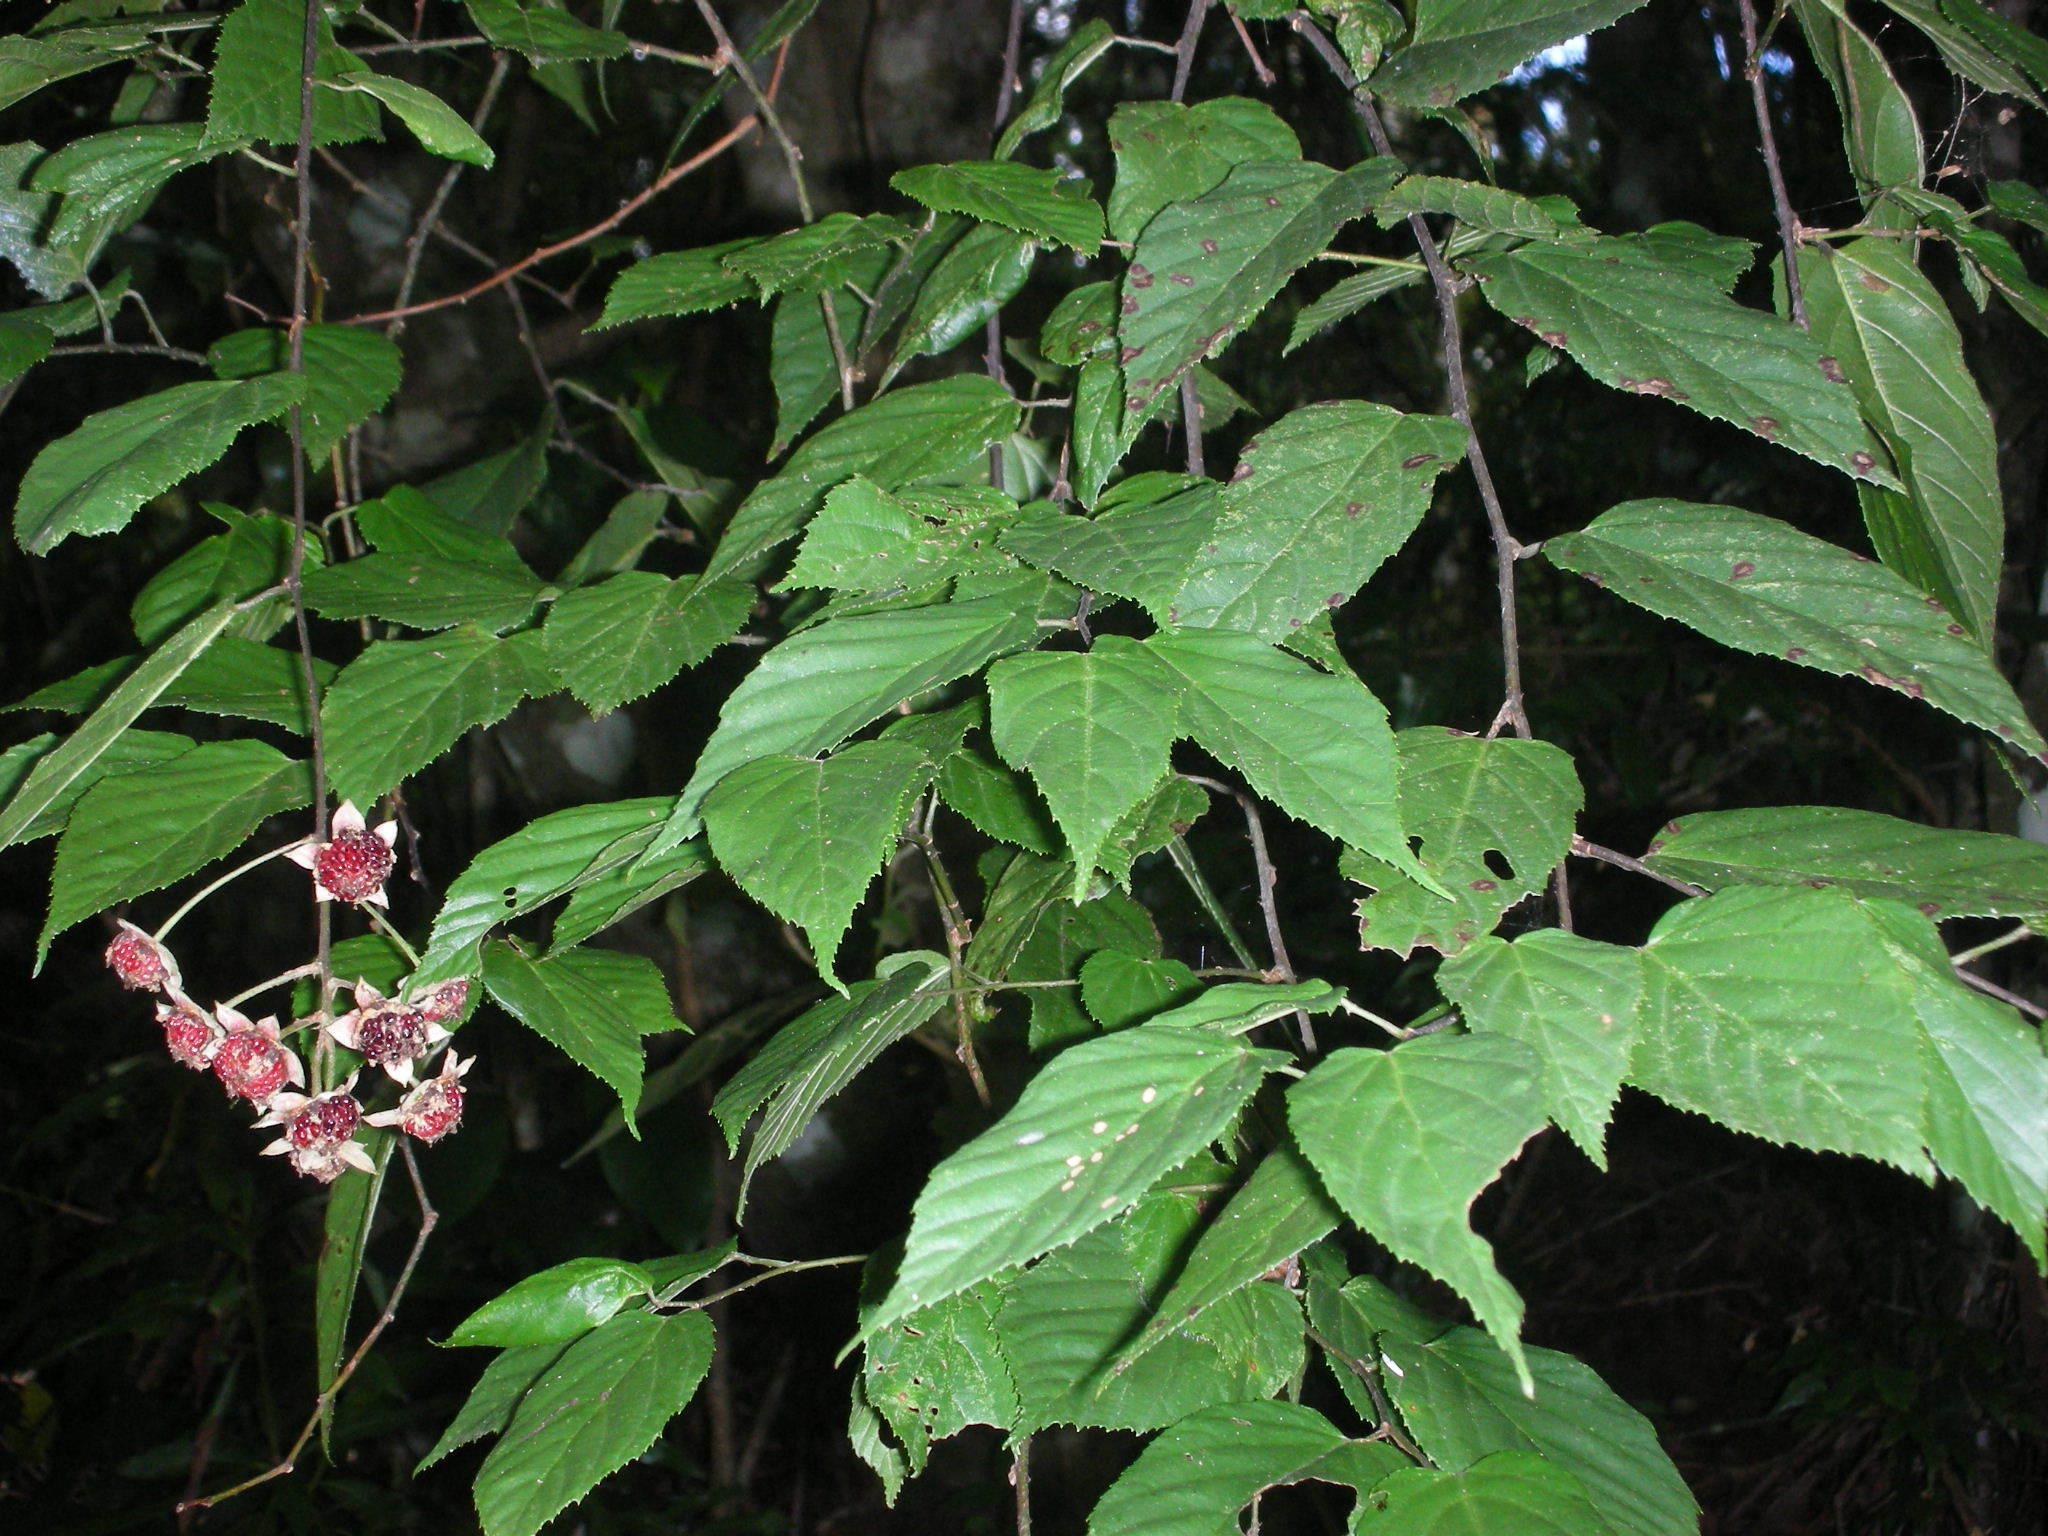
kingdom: Plantae
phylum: Tracheophyta
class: Magnoliopsida
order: Rosales
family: Rosaceae
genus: Rubus
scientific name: Rubus kawakamii
